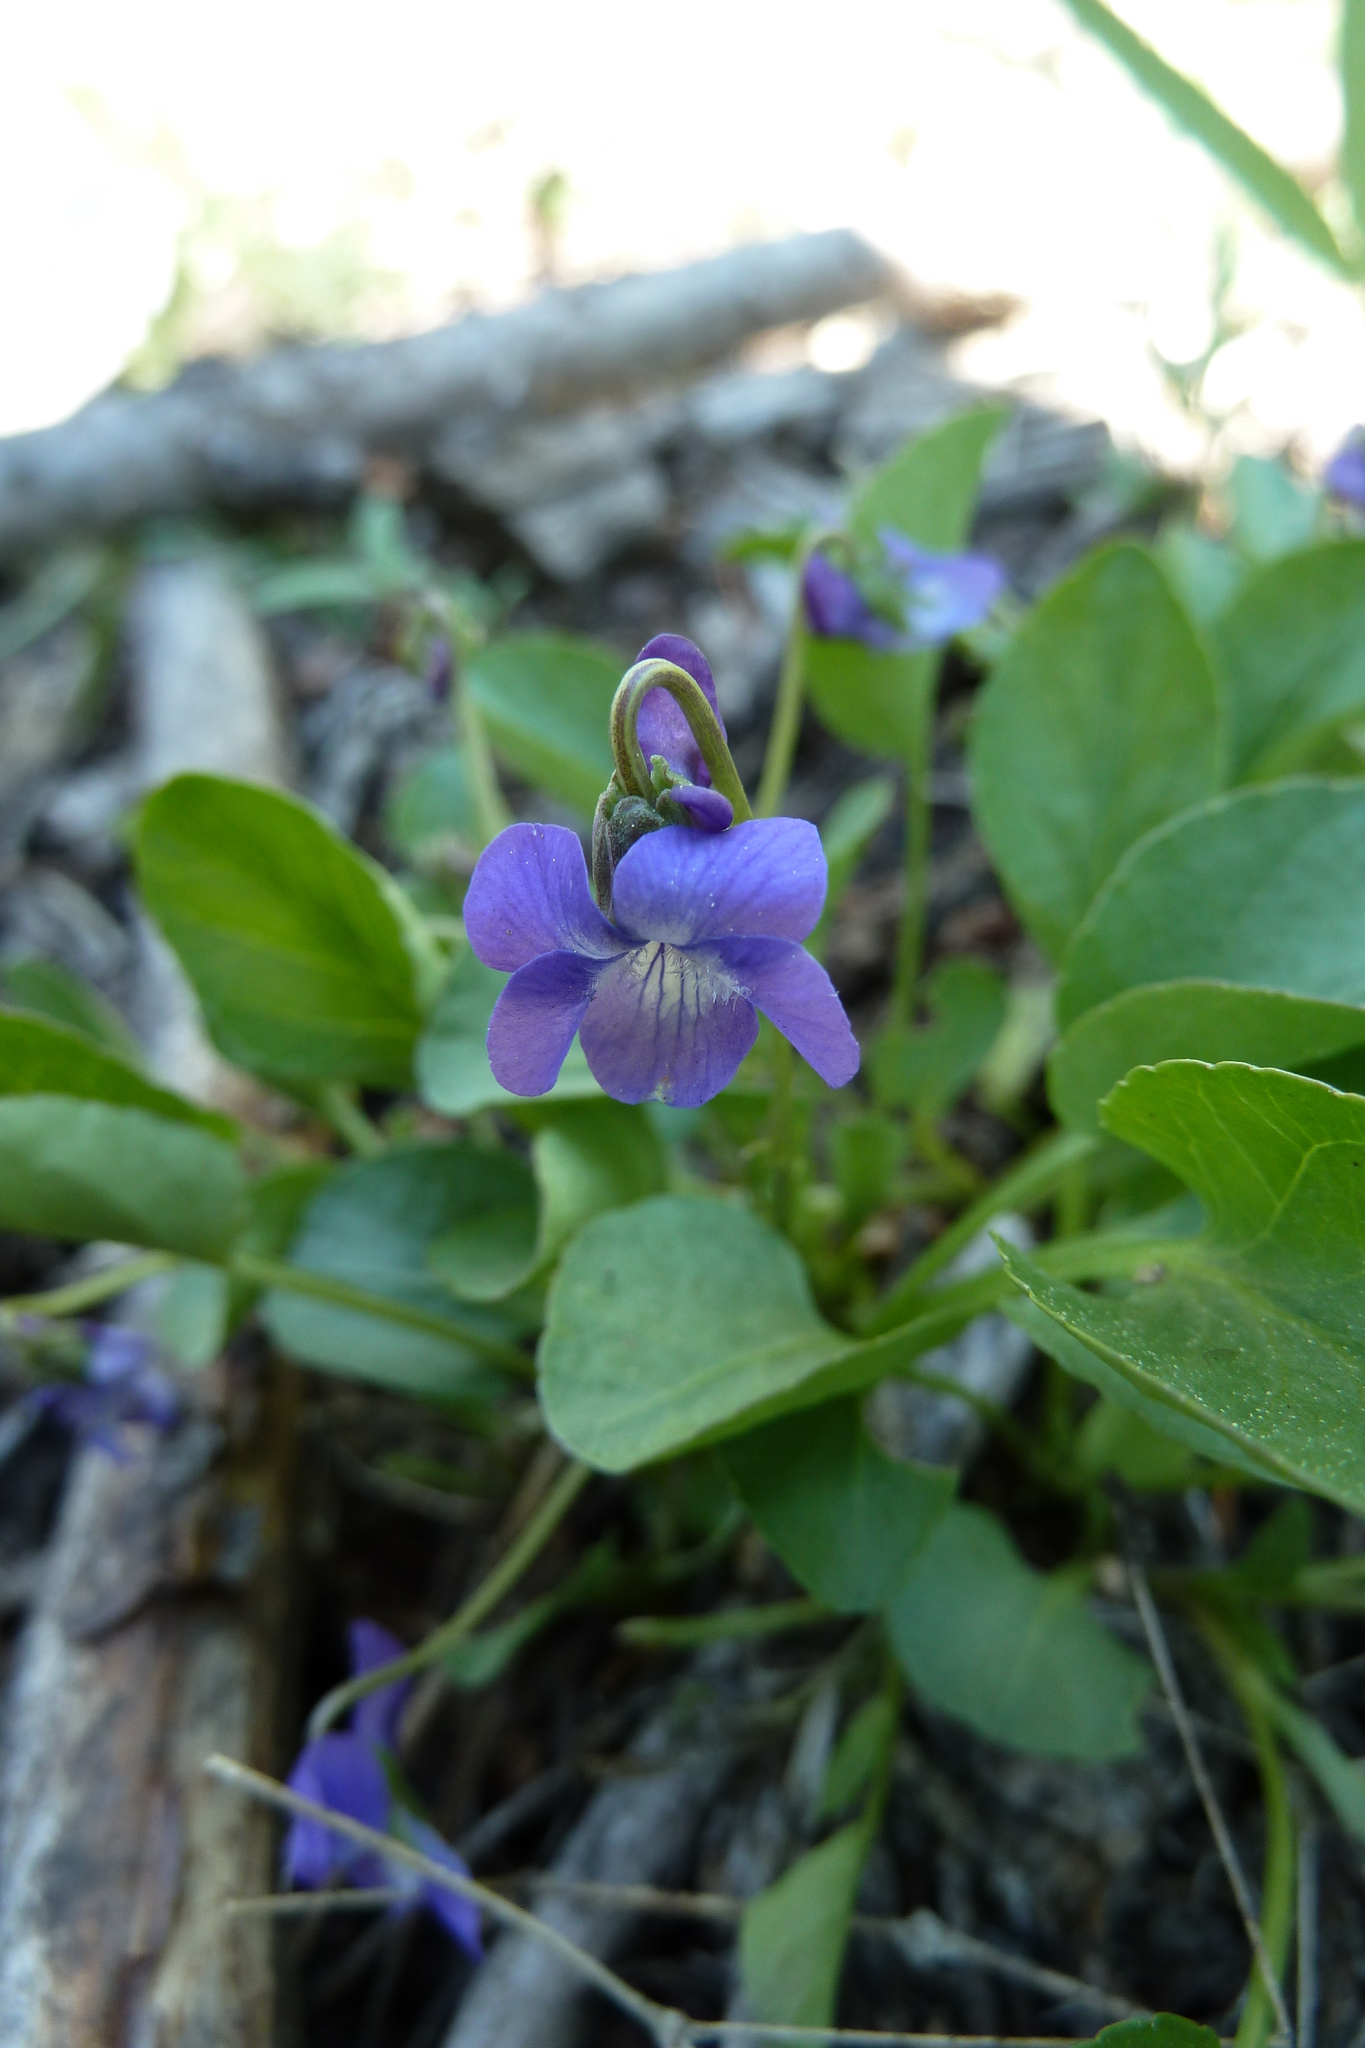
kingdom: Plantae
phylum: Tracheophyta
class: Magnoliopsida
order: Malpighiales
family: Violaceae
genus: Viola
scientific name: Viola adunca
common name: Sand violet
